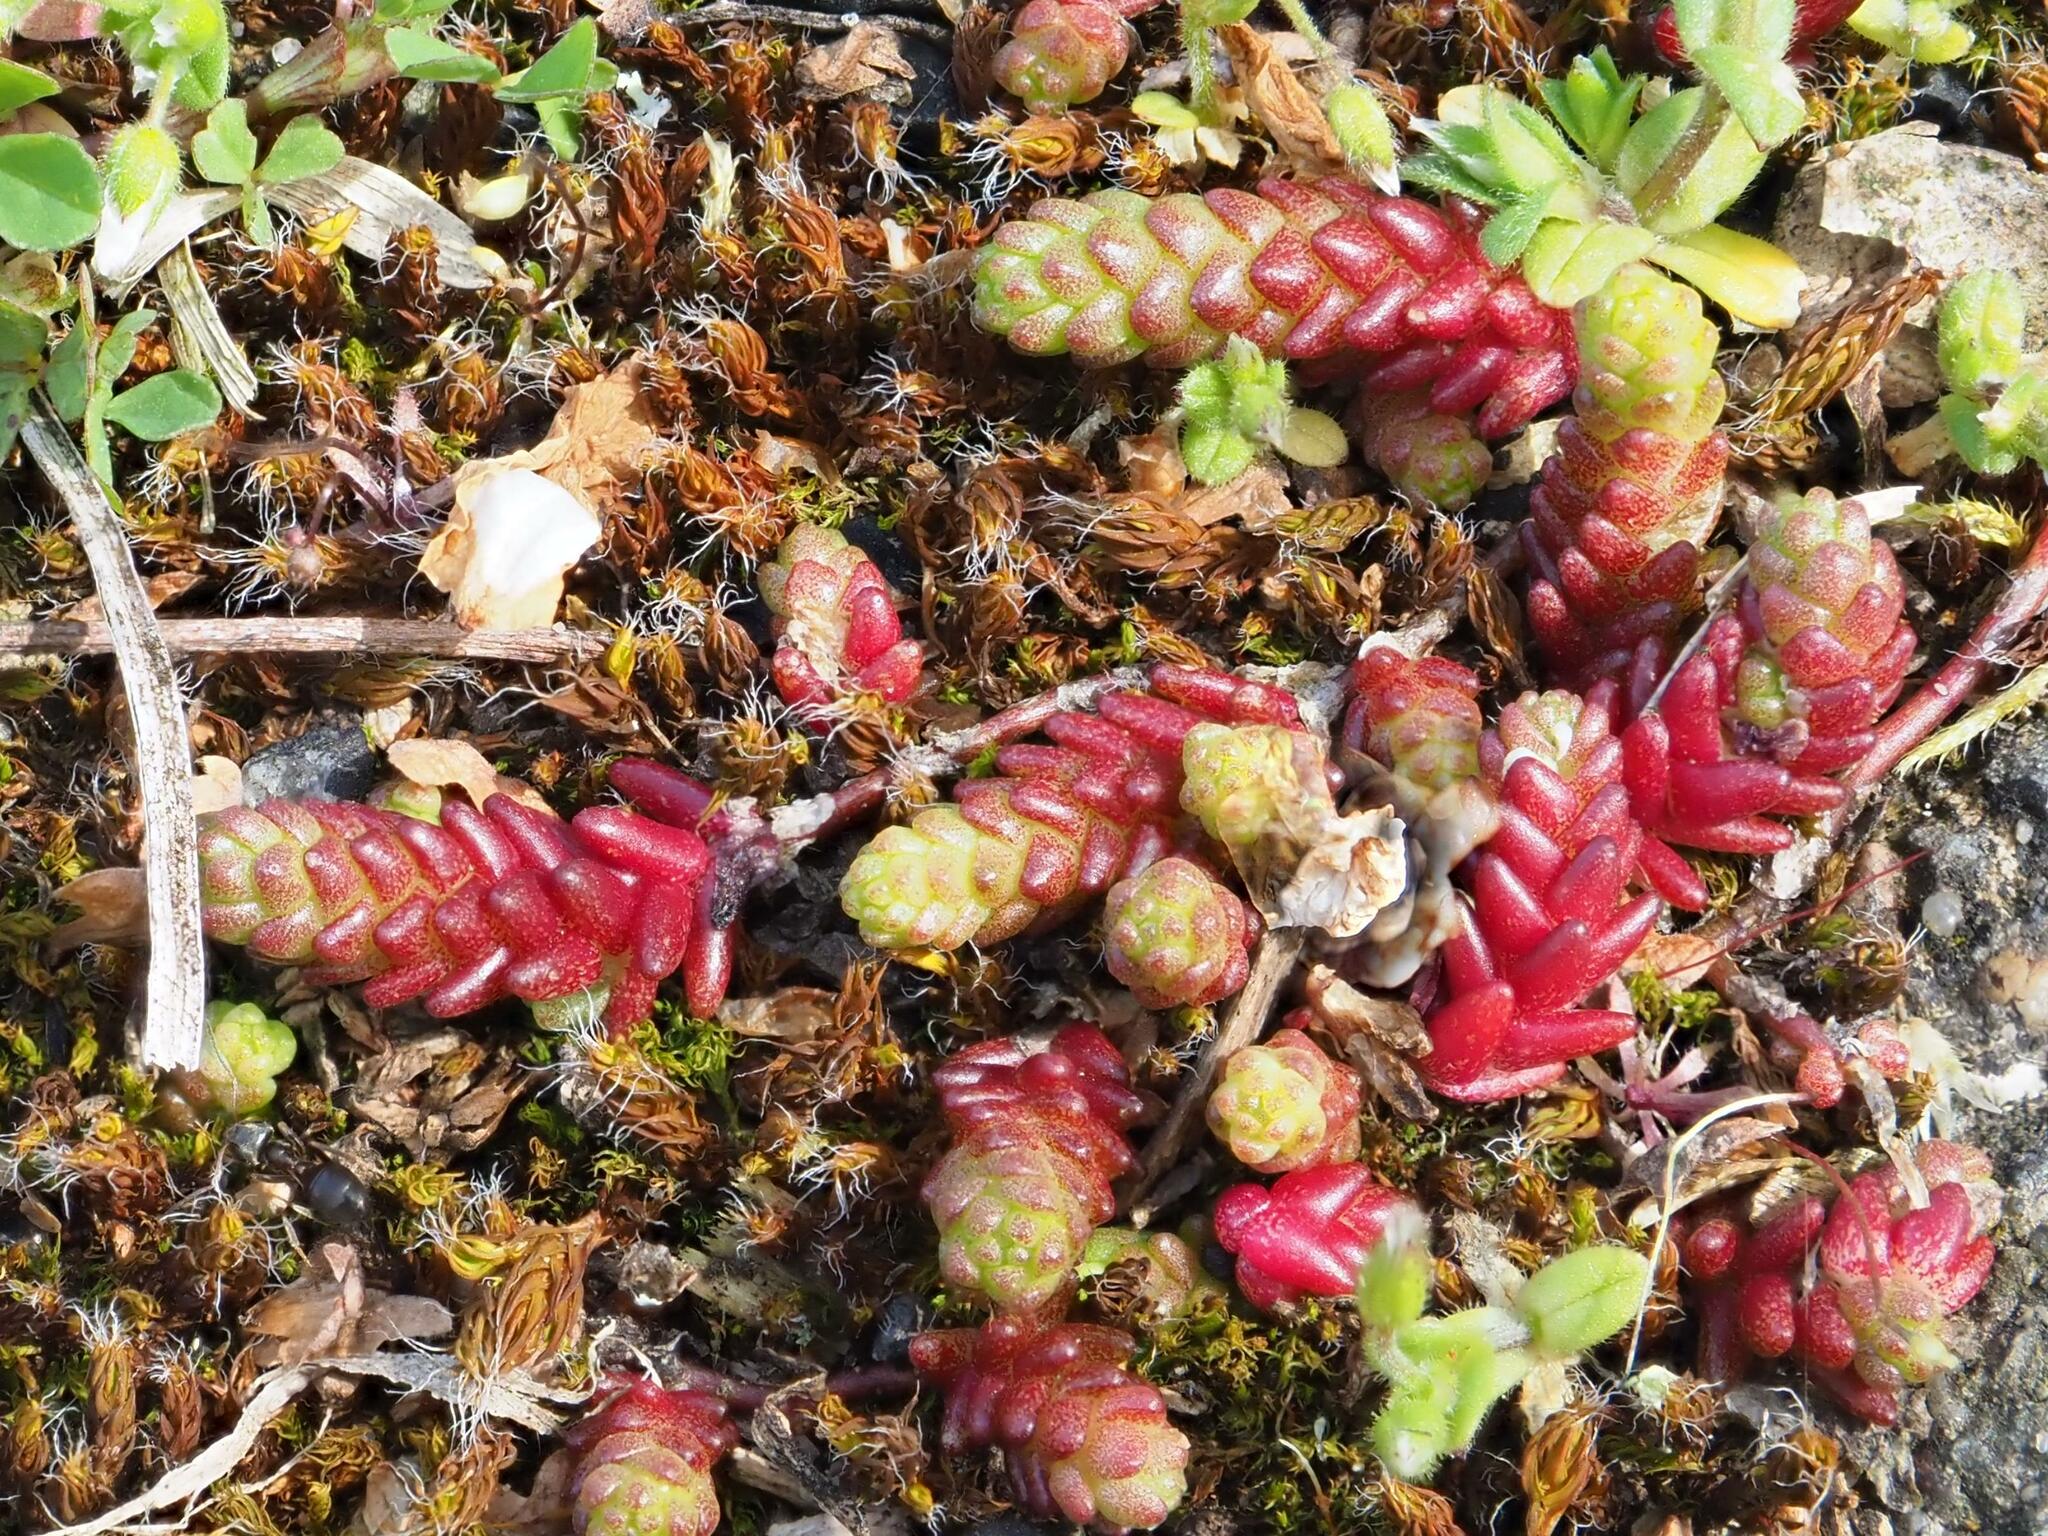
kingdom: Plantae
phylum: Tracheophyta
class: Magnoliopsida
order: Saxifragales
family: Crassulaceae
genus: Sedum
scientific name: Sedum acre
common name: Biting stonecrop
